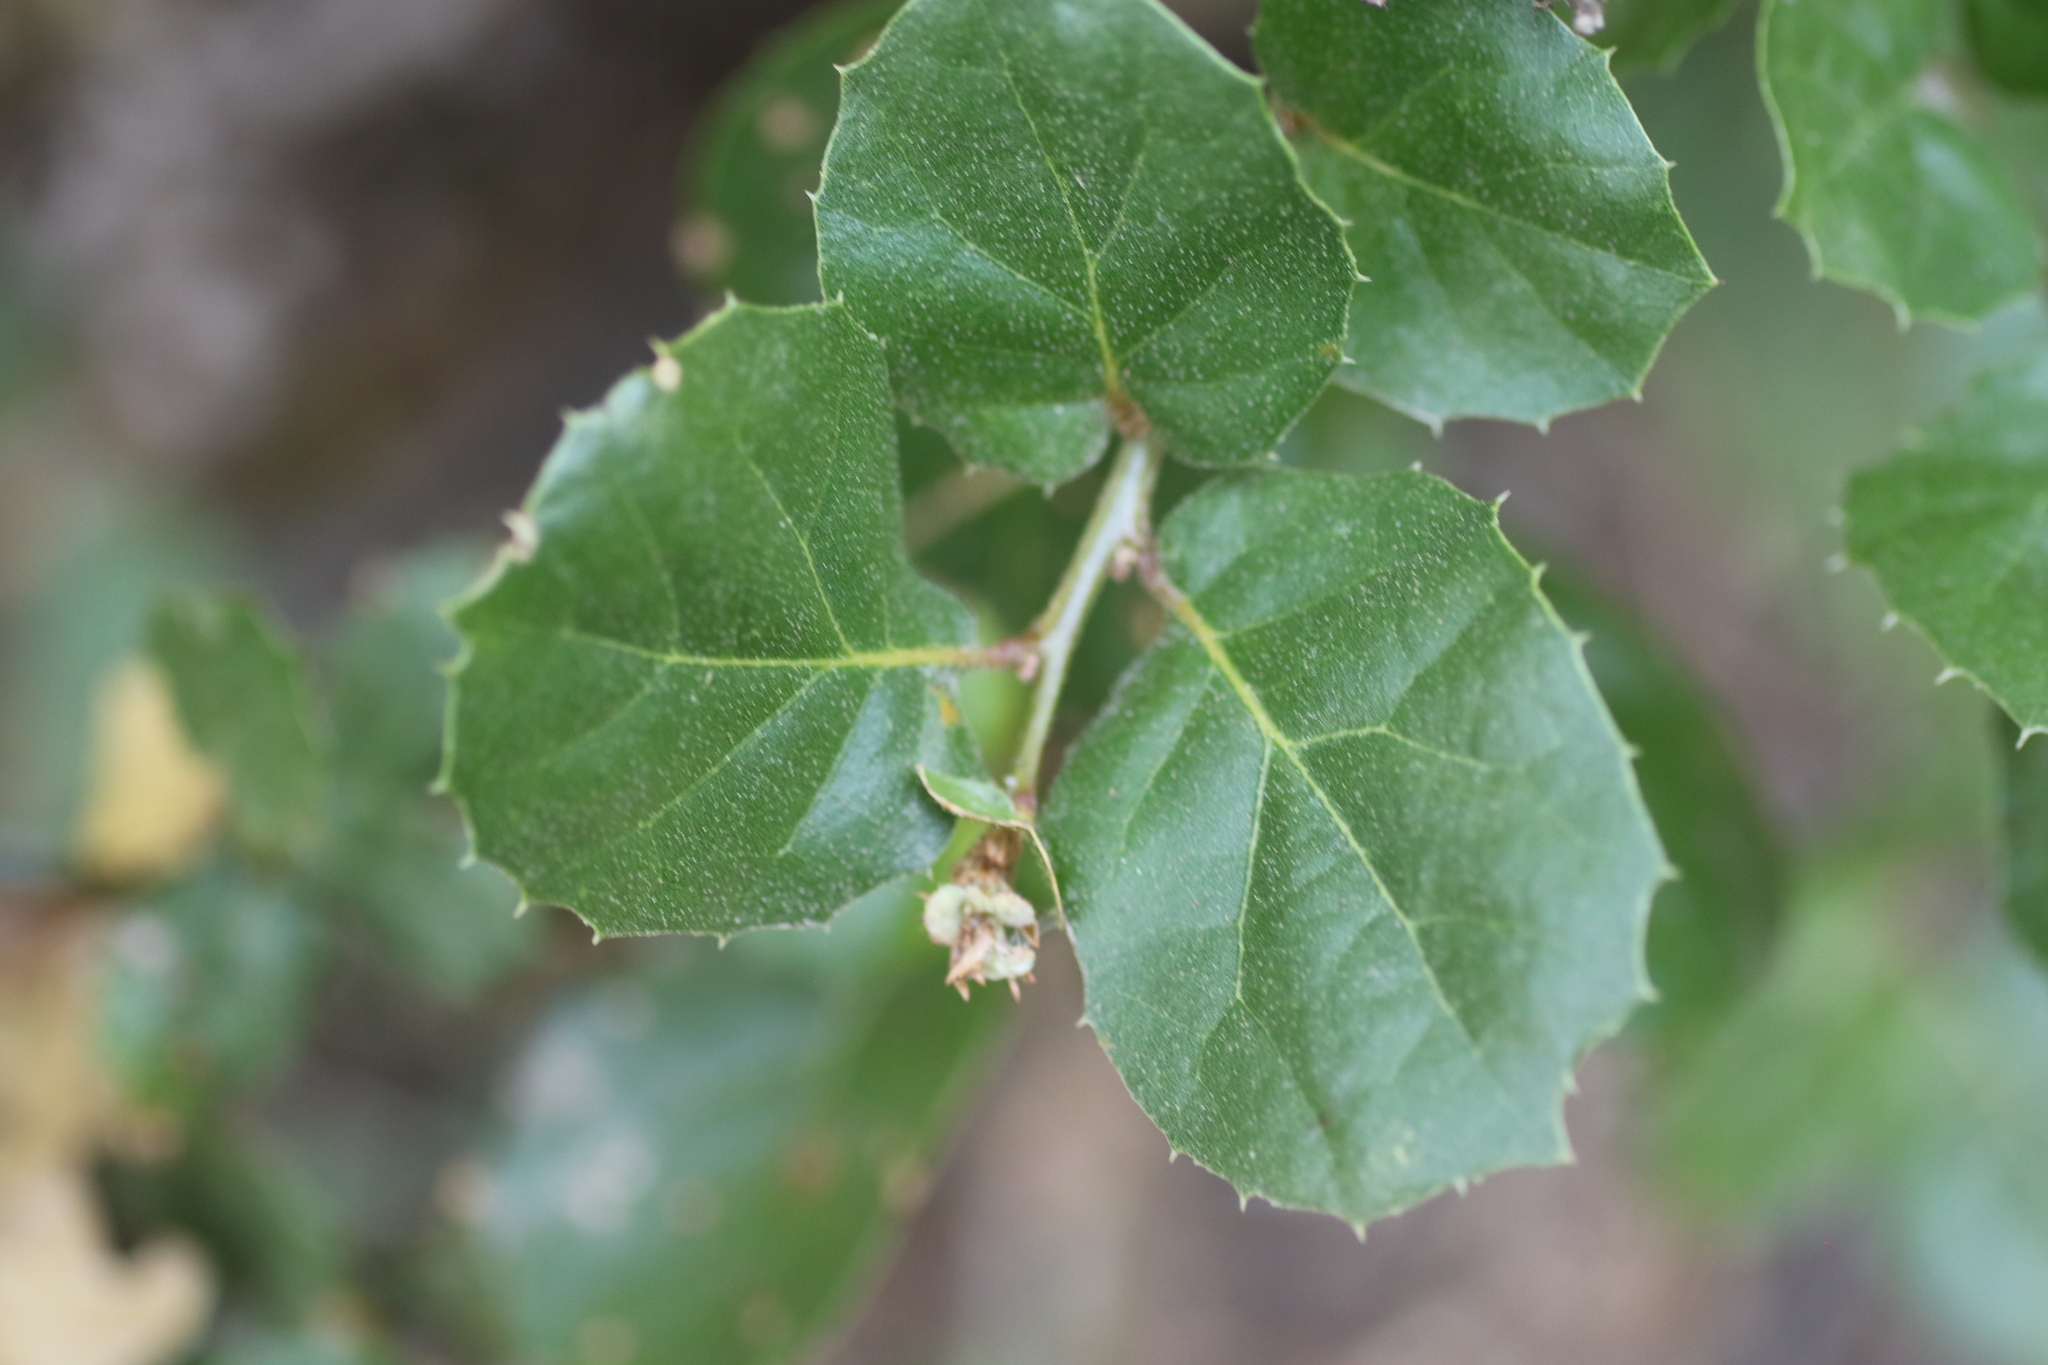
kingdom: Plantae
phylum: Tracheophyta
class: Magnoliopsida
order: Fagales
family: Fagaceae
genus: Quercus
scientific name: Quercus agrifolia
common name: California live oak
